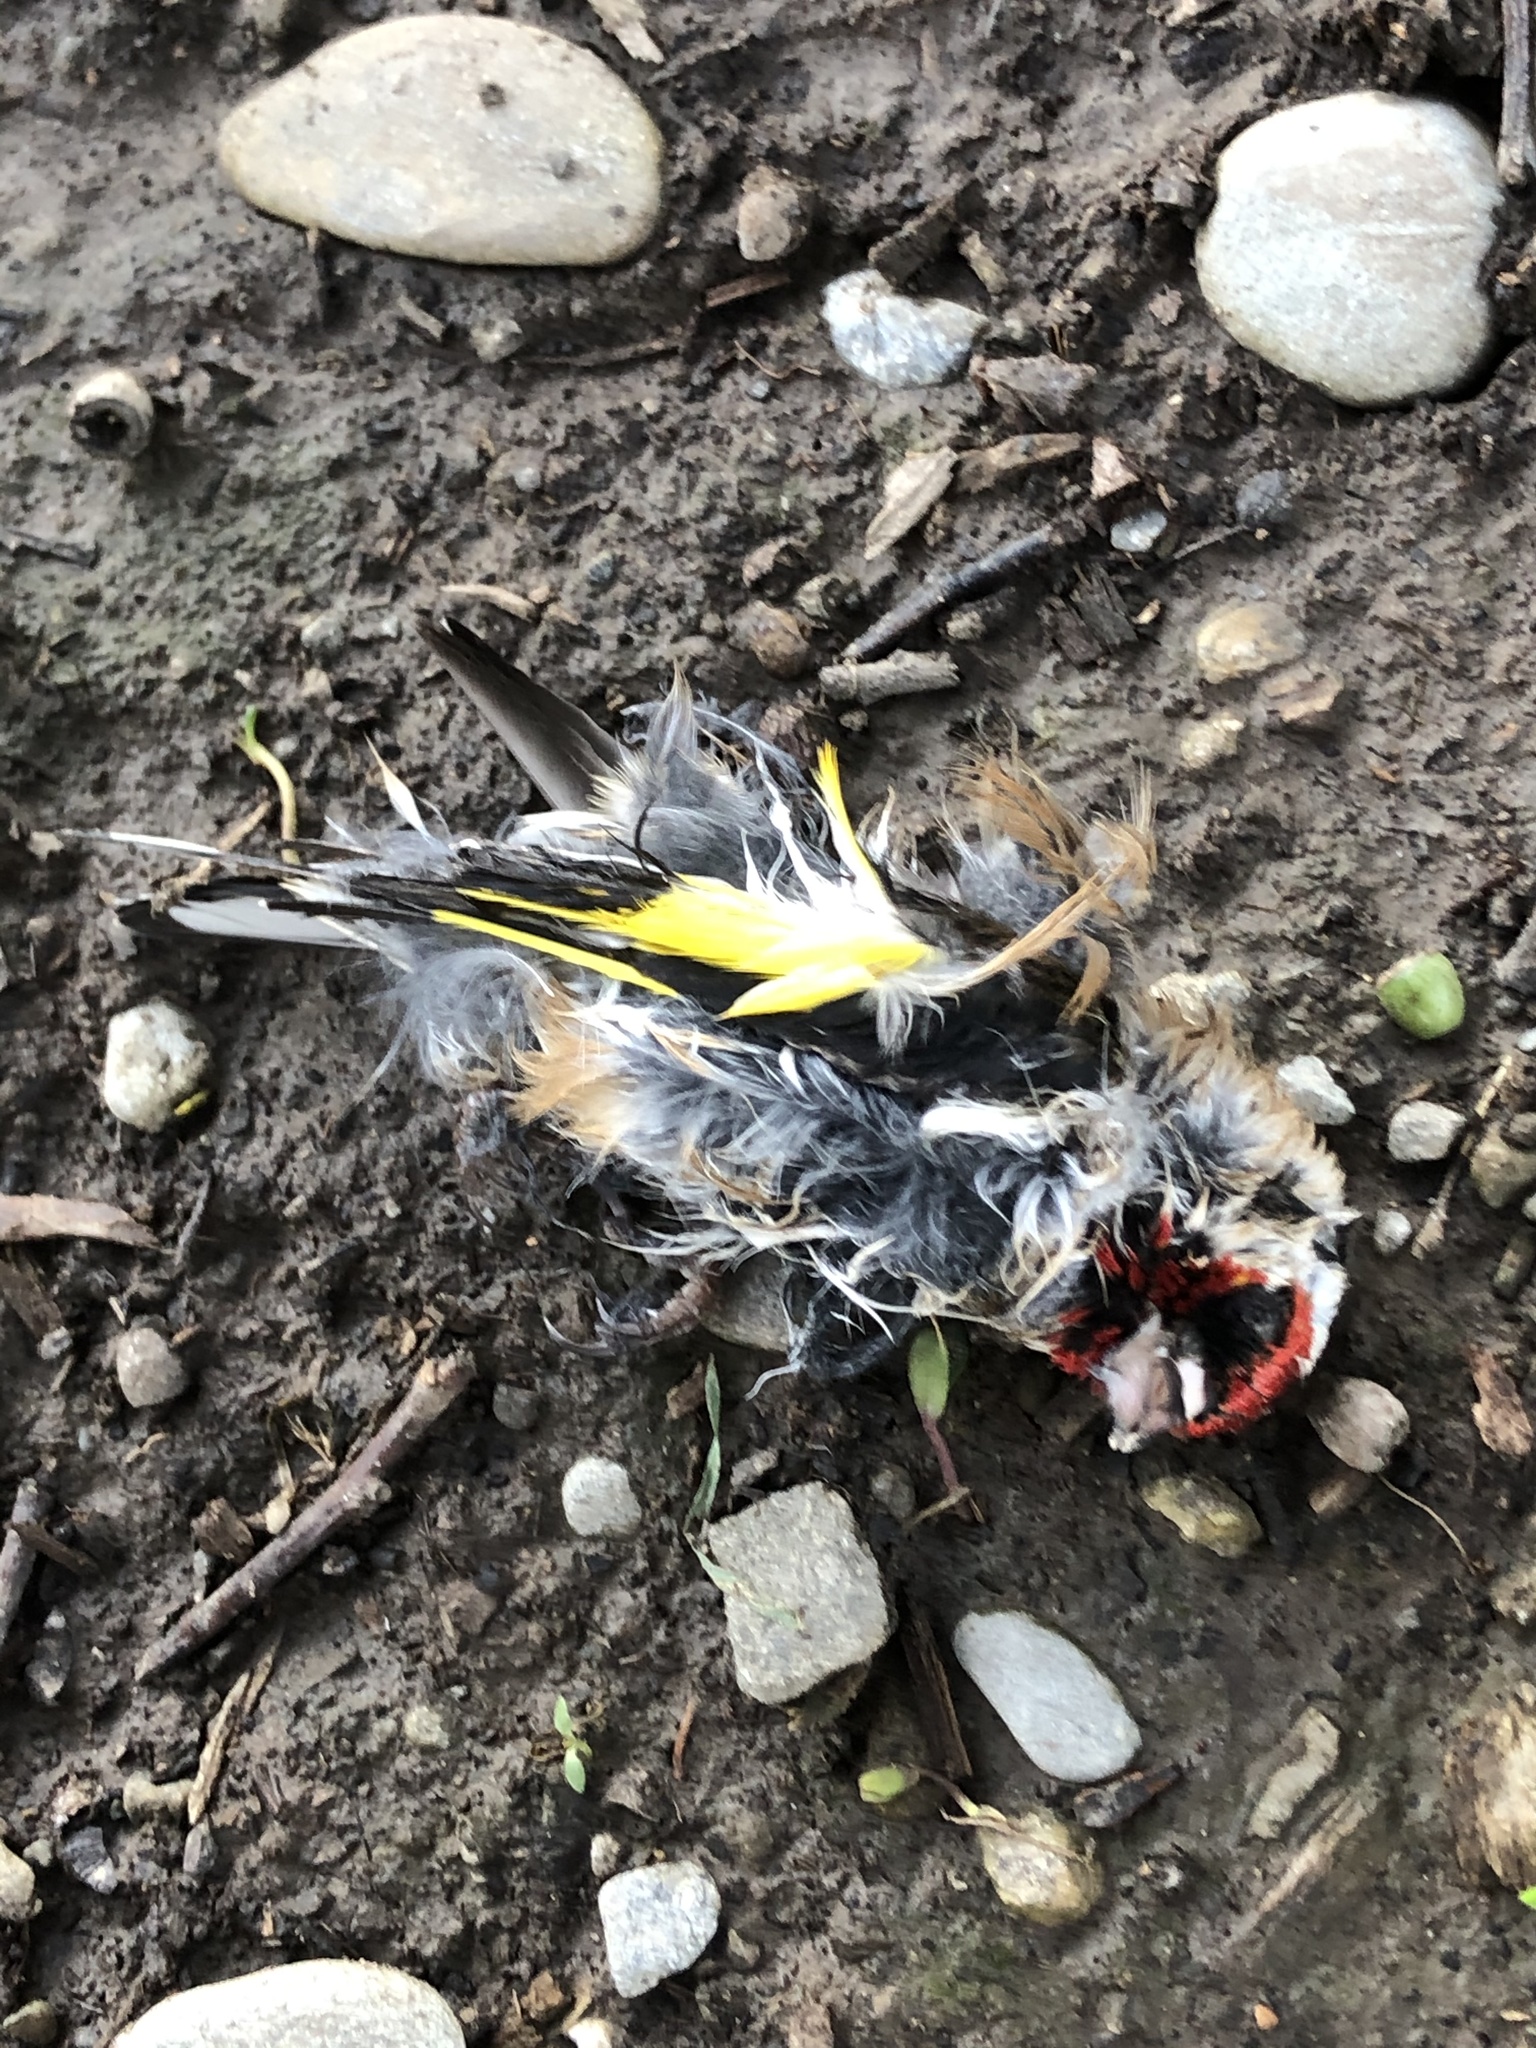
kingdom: Animalia
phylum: Chordata
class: Aves
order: Passeriformes
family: Fringillidae
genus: Carduelis
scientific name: Carduelis carduelis
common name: European goldfinch
